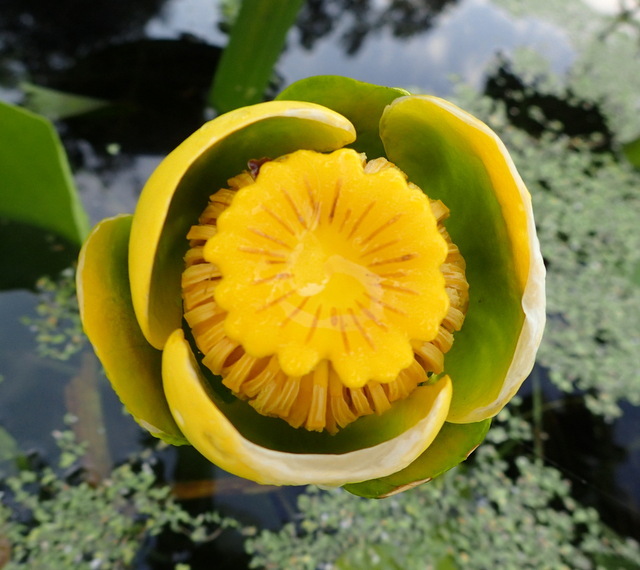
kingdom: Plantae
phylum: Tracheophyta
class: Magnoliopsida
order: Nymphaeales
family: Nymphaeaceae
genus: Nuphar
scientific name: Nuphar advena
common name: Spatter-dock
